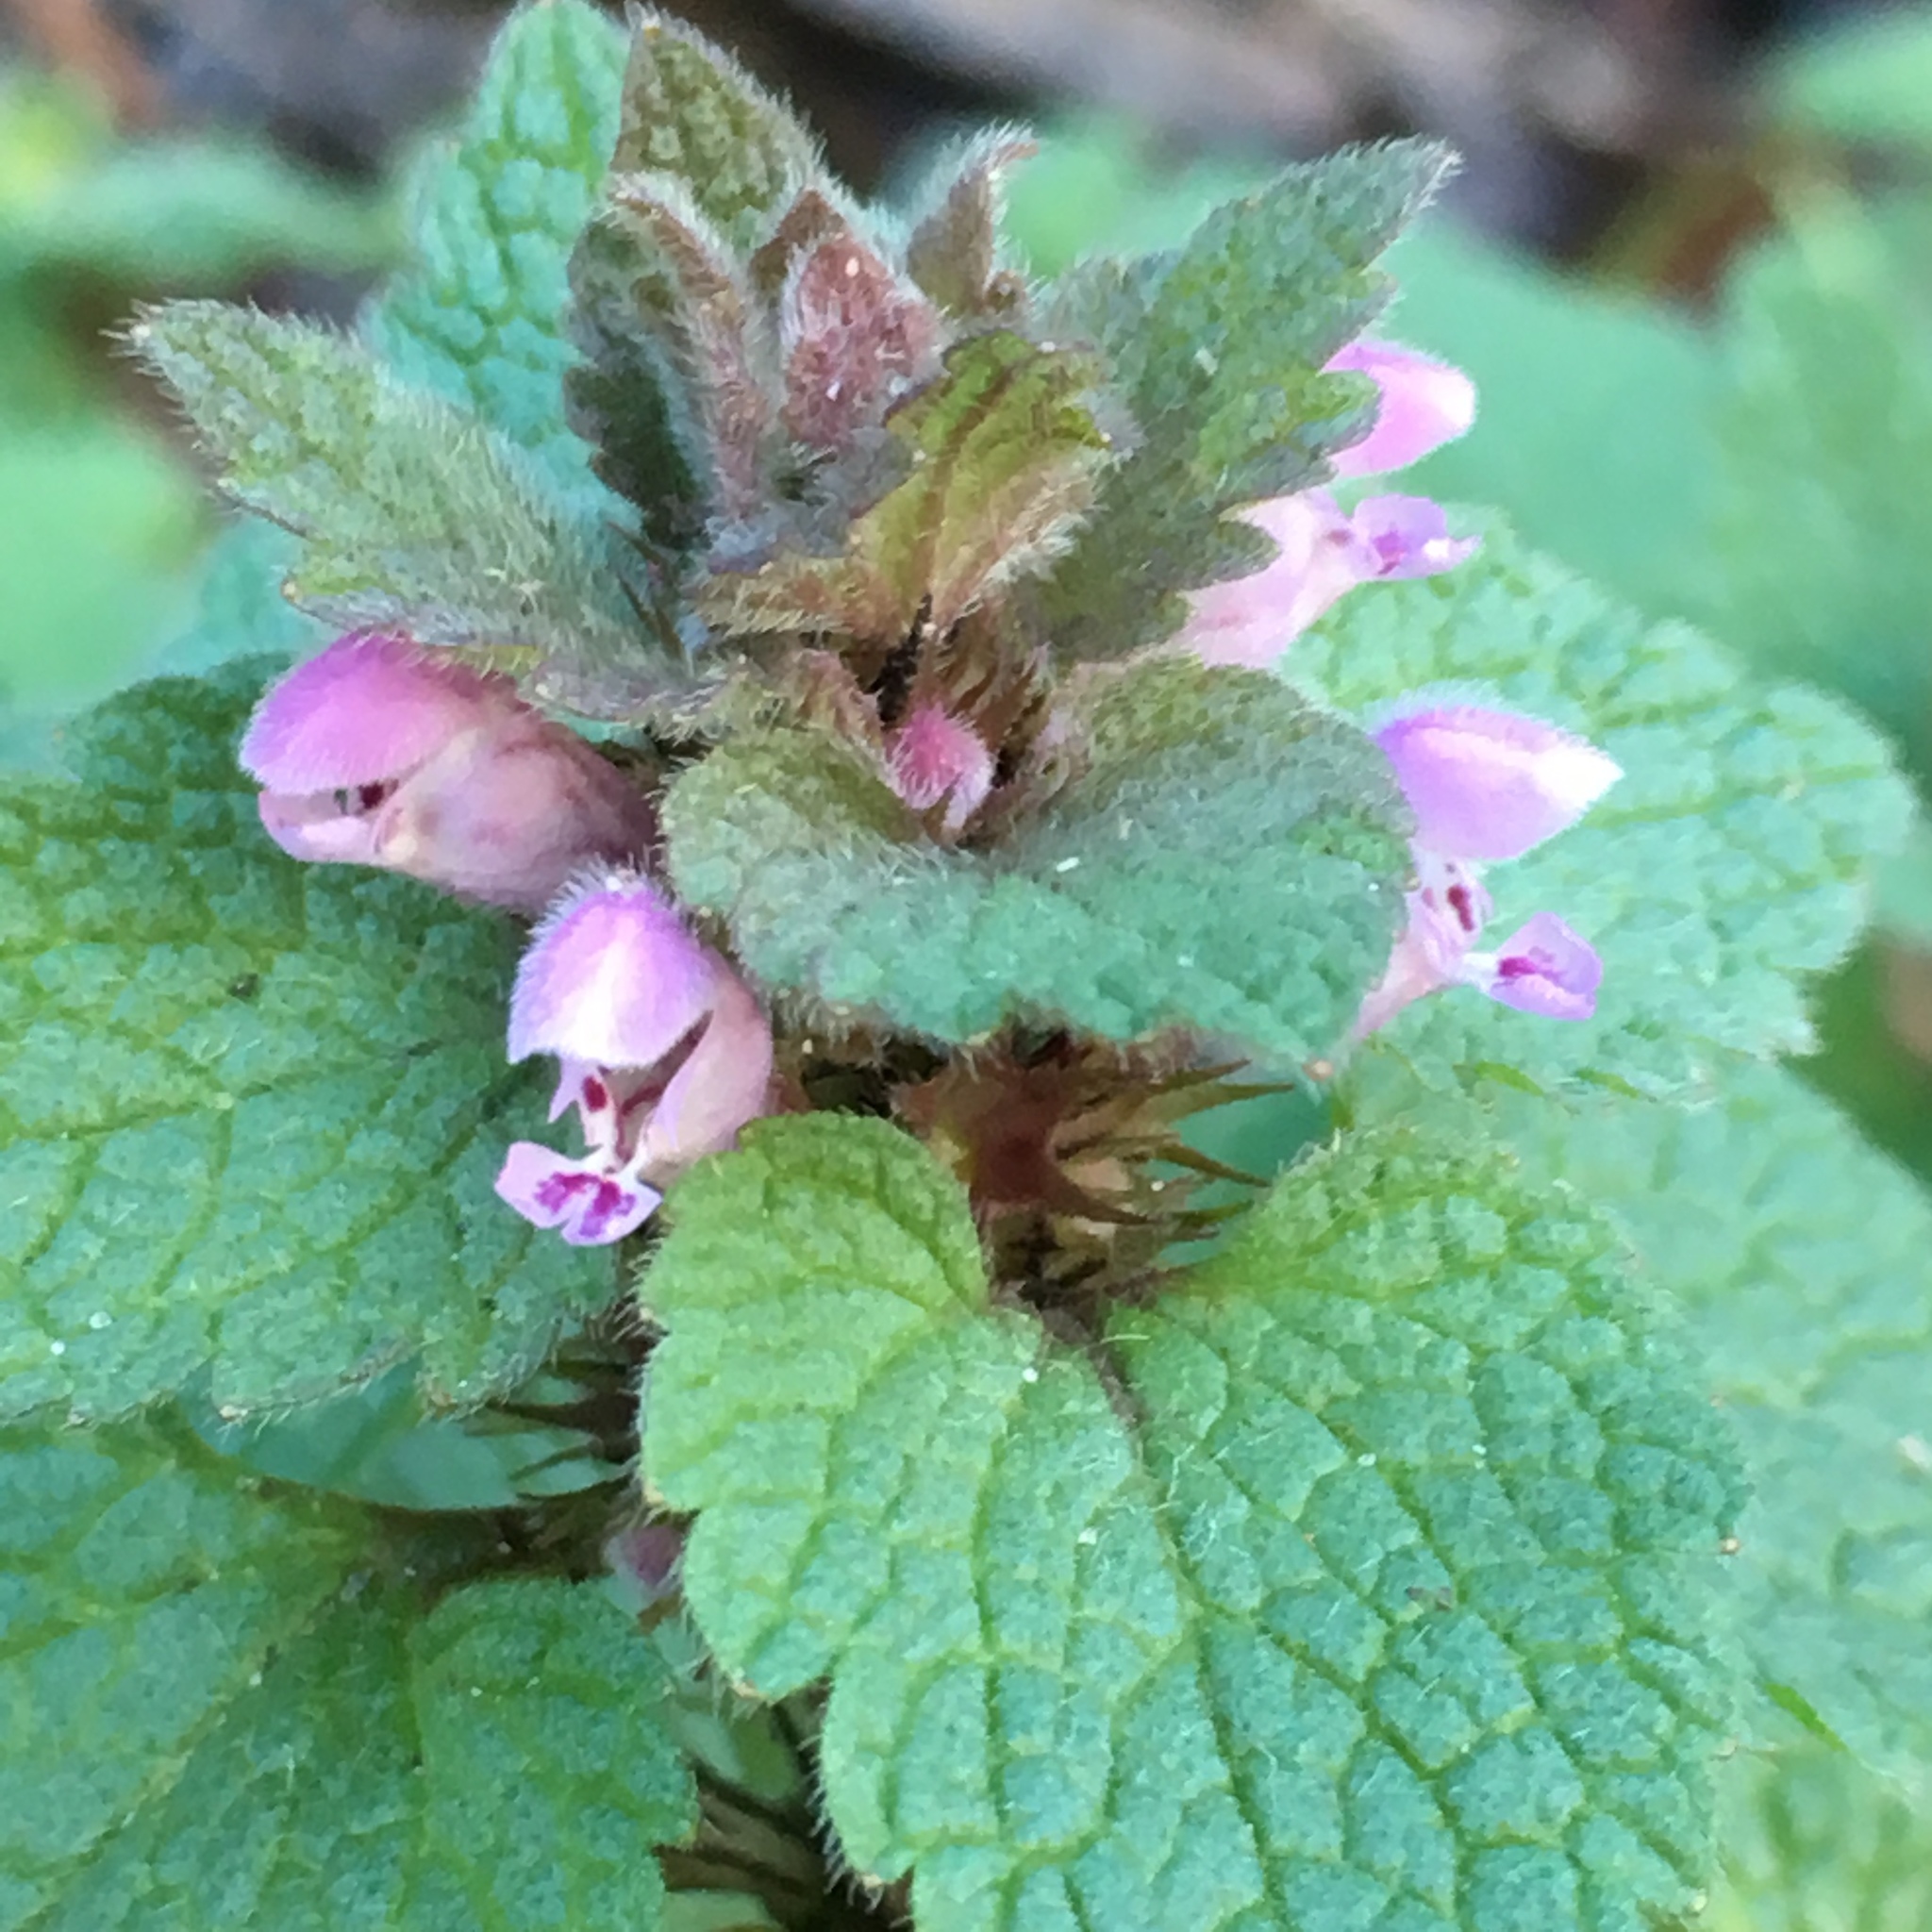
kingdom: Plantae
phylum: Tracheophyta
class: Magnoliopsida
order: Lamiales
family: Lamiaceae
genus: Lamium
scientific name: Lamium purpureum
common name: Red dead-nettle
